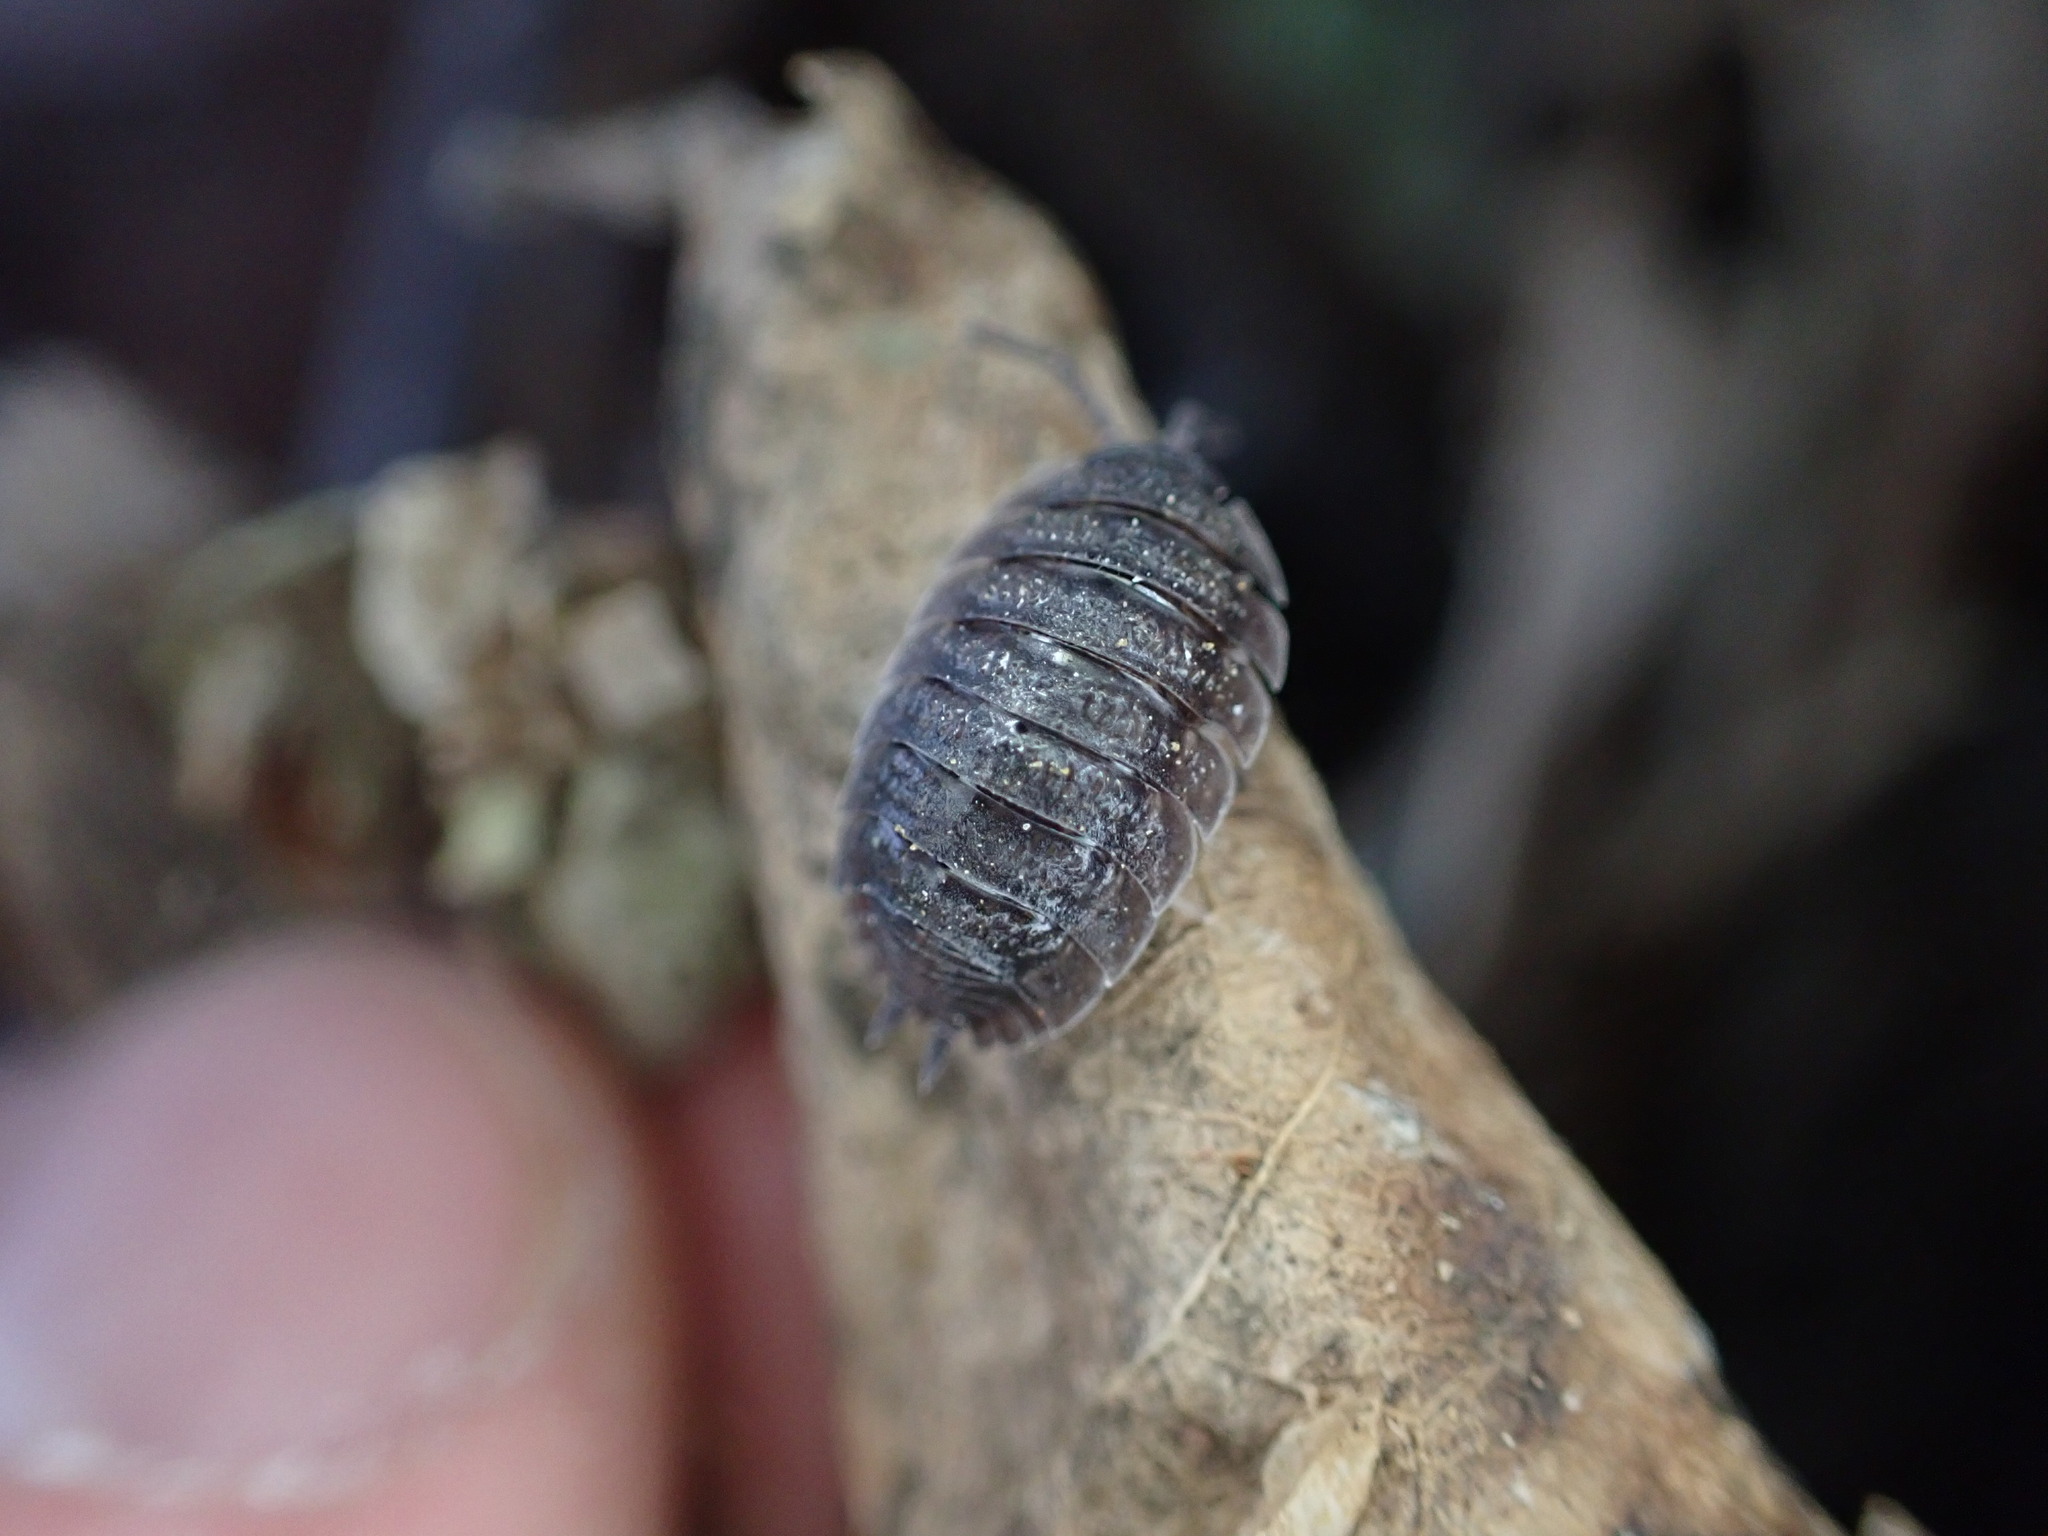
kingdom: Animalia
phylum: Arthropoda
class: Malacostraca
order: Isopoda
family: Porcellionidae
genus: Porcellio
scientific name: Porcellio scaber
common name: Common rough woodlouse
